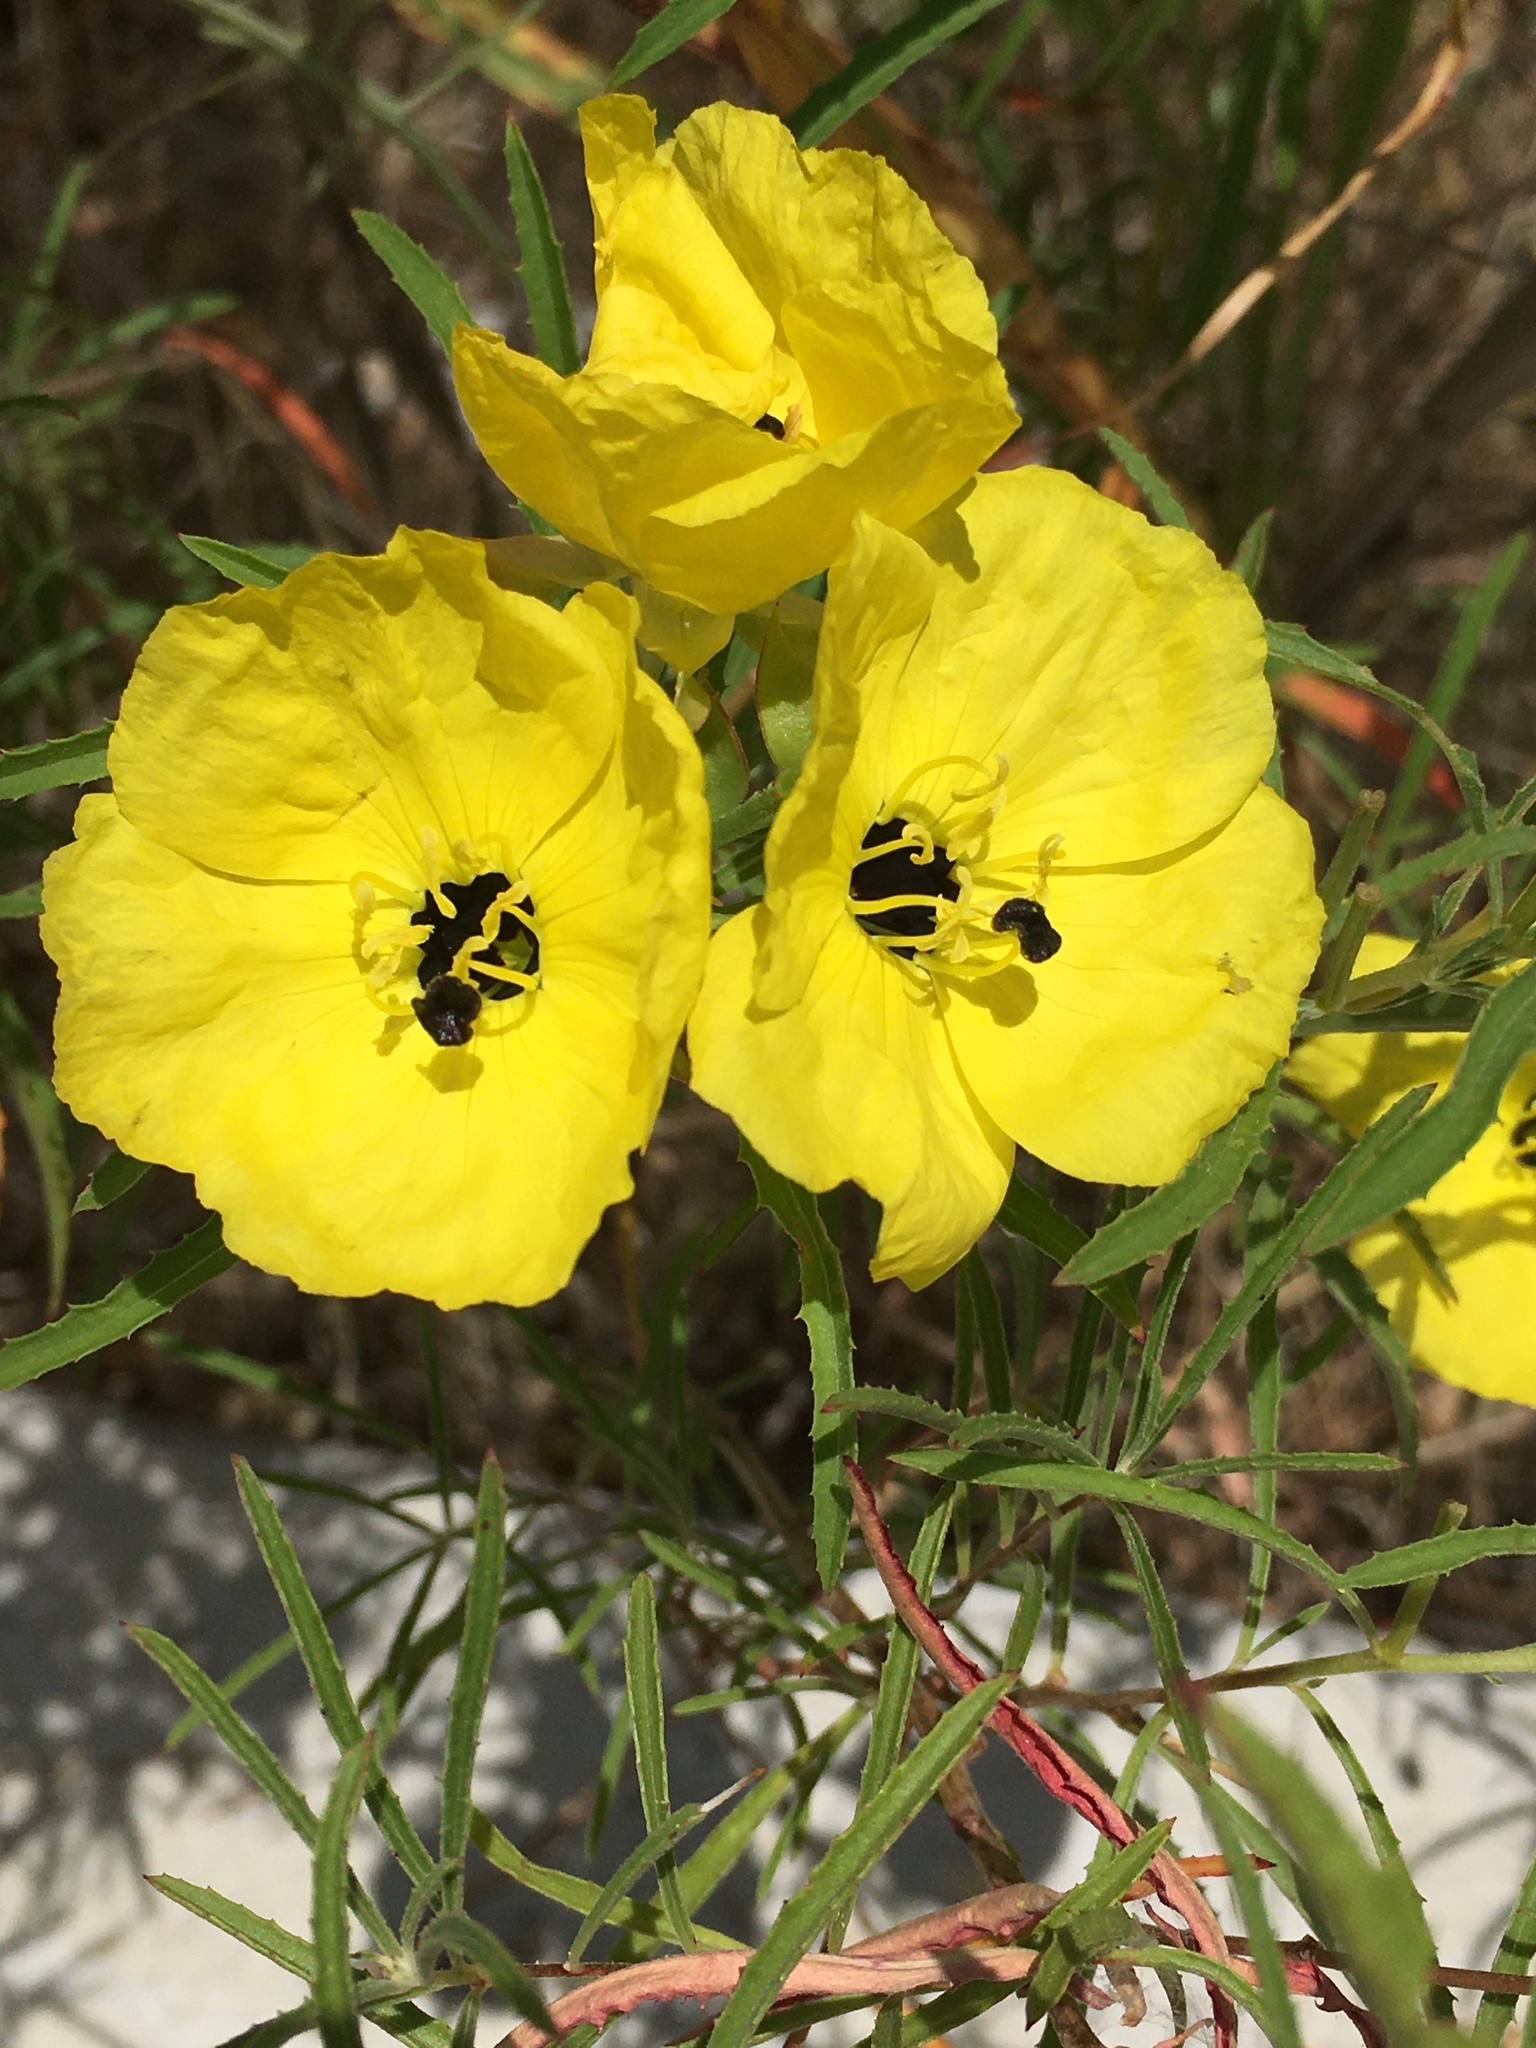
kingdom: Plantae
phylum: Tracheophyta
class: Magnoliopsida
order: Myrtales
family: Onagraceae
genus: Oenothera
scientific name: Oenothera
